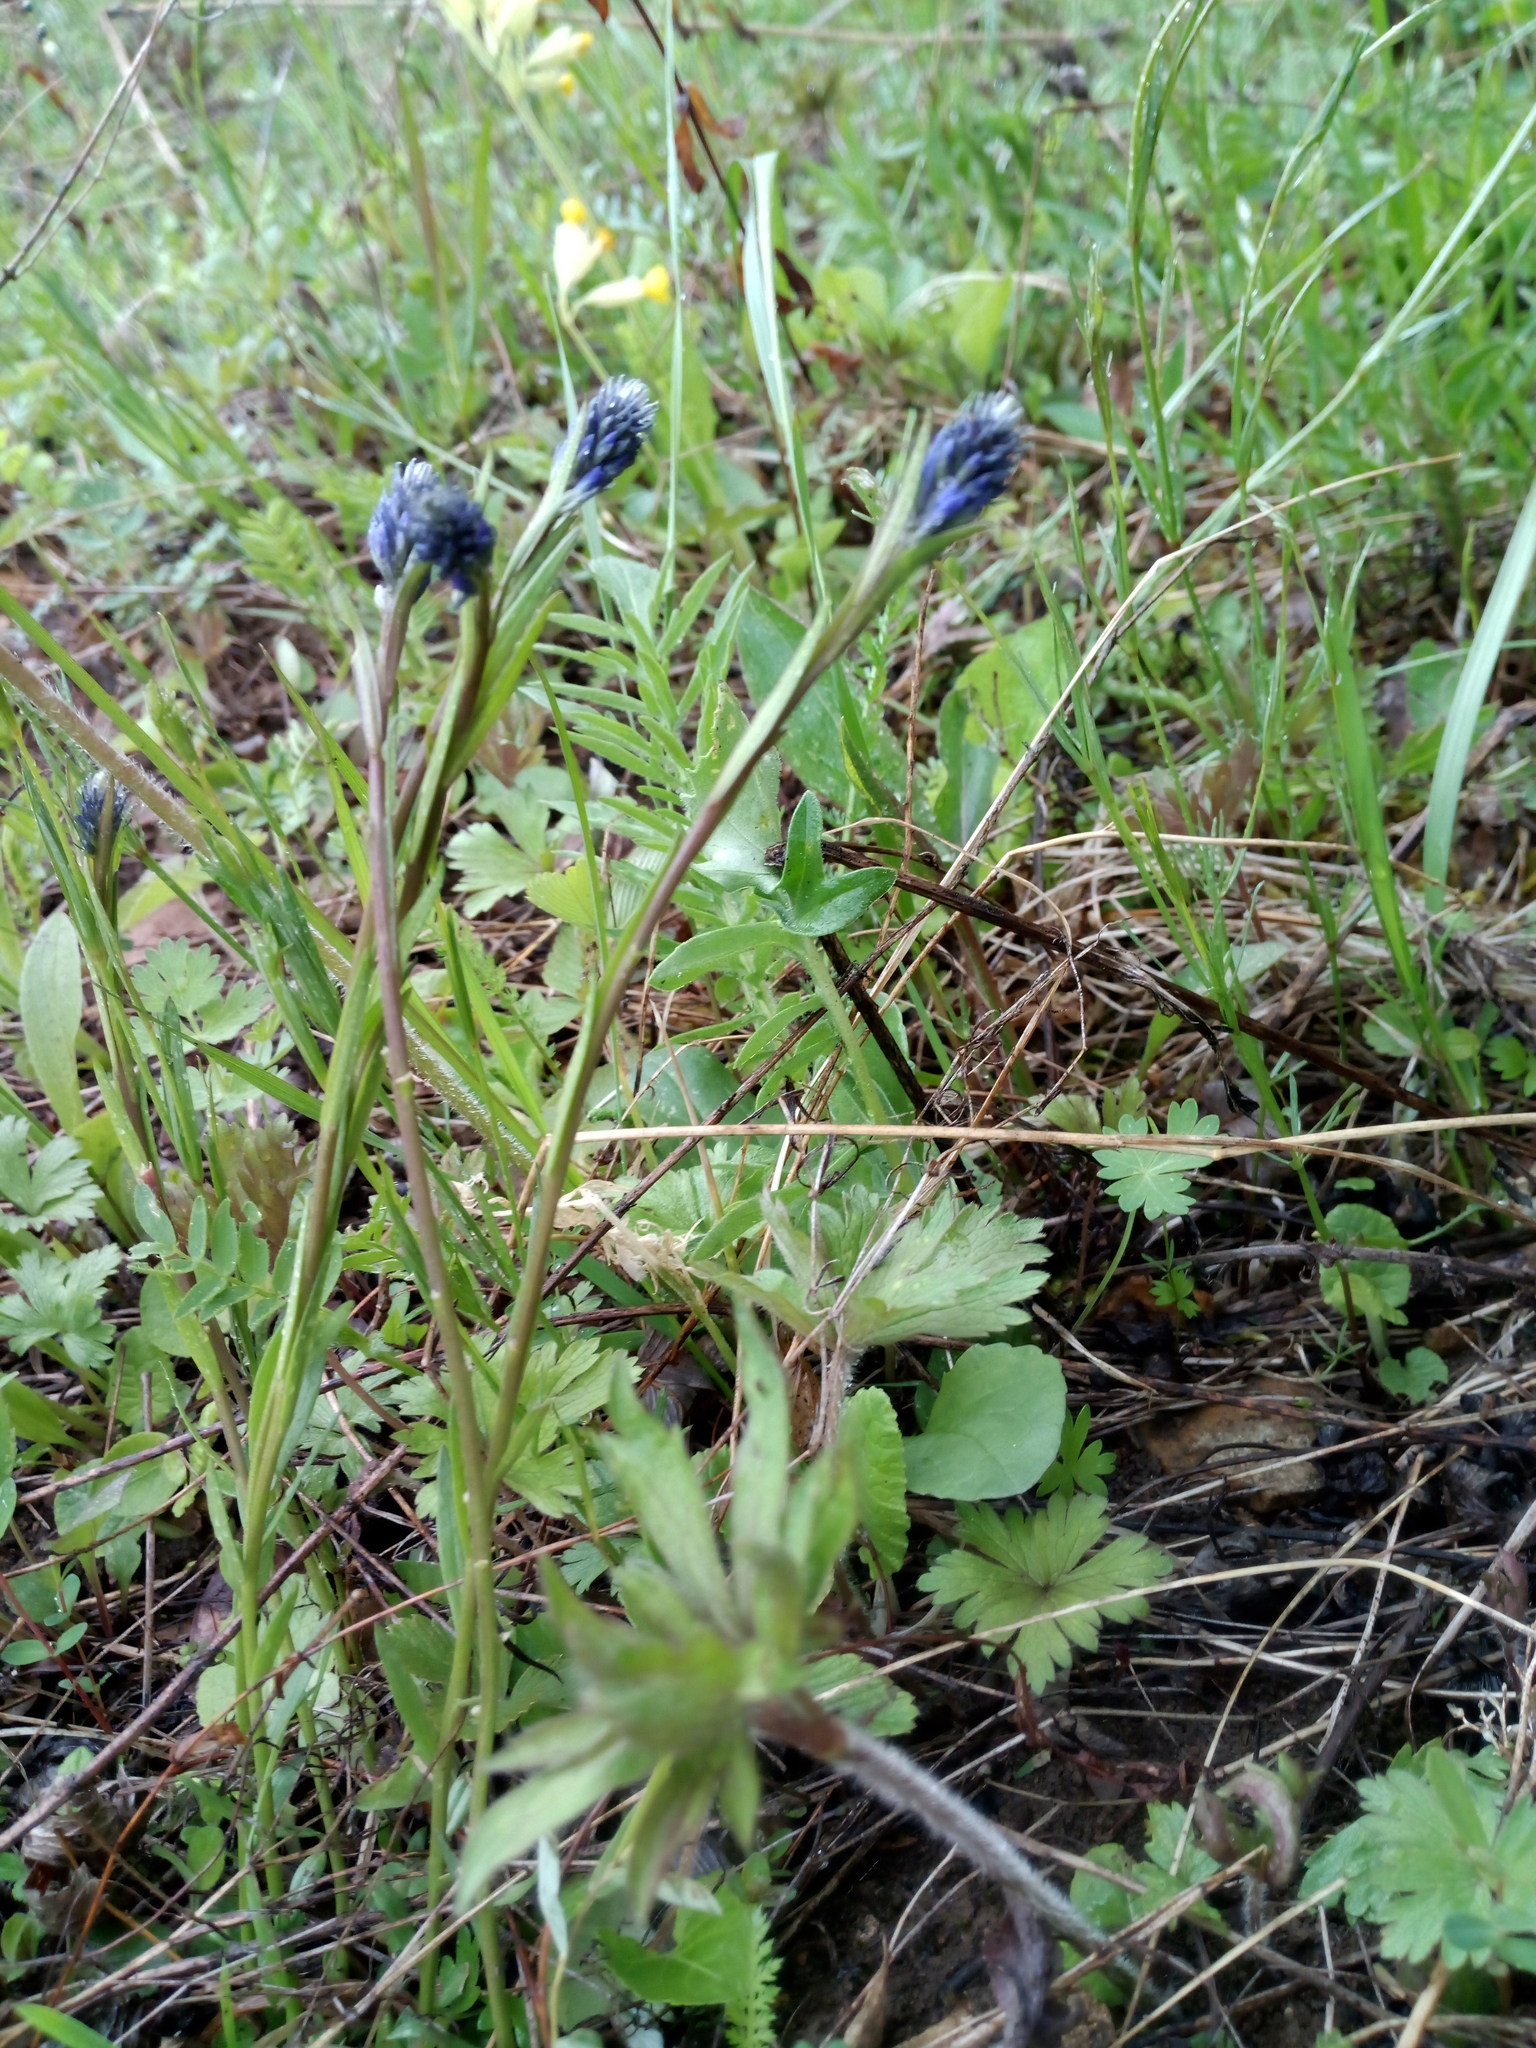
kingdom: Plantae
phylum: Tracheophyta
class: Magnoliopsida
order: Fabales
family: Polygalaceae
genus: Polygala
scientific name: Polygala comosa
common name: Tufted milkwort
